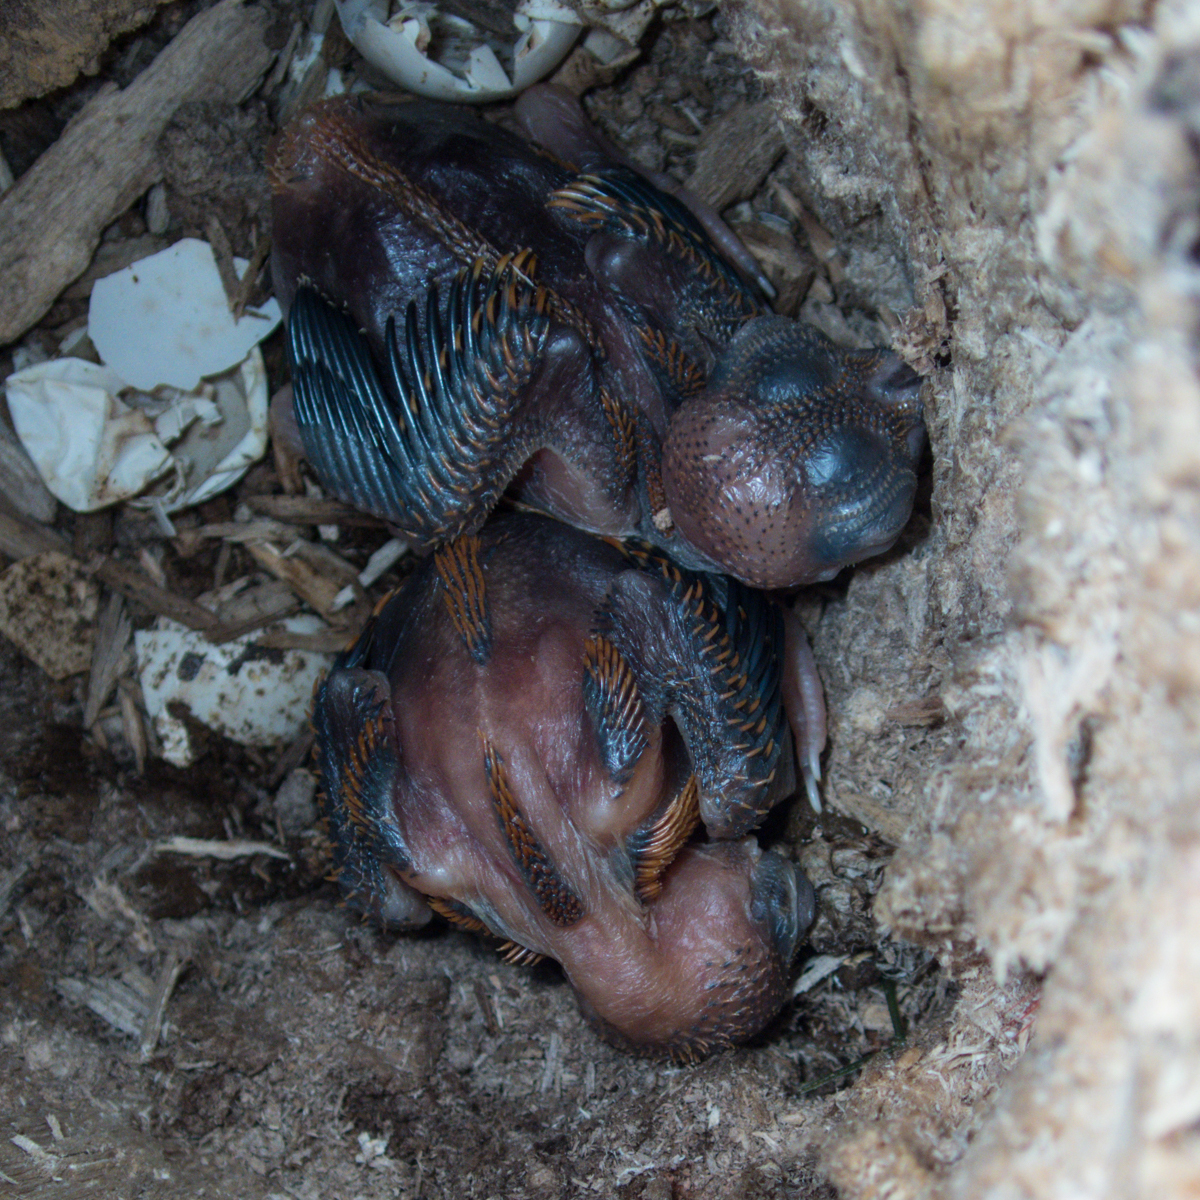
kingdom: Animalia
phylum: Chordata
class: Aves
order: Trogoniformes
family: Trogonidae
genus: Harpactes
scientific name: Harpactes erythrocephalus
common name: Red-headed trogon
